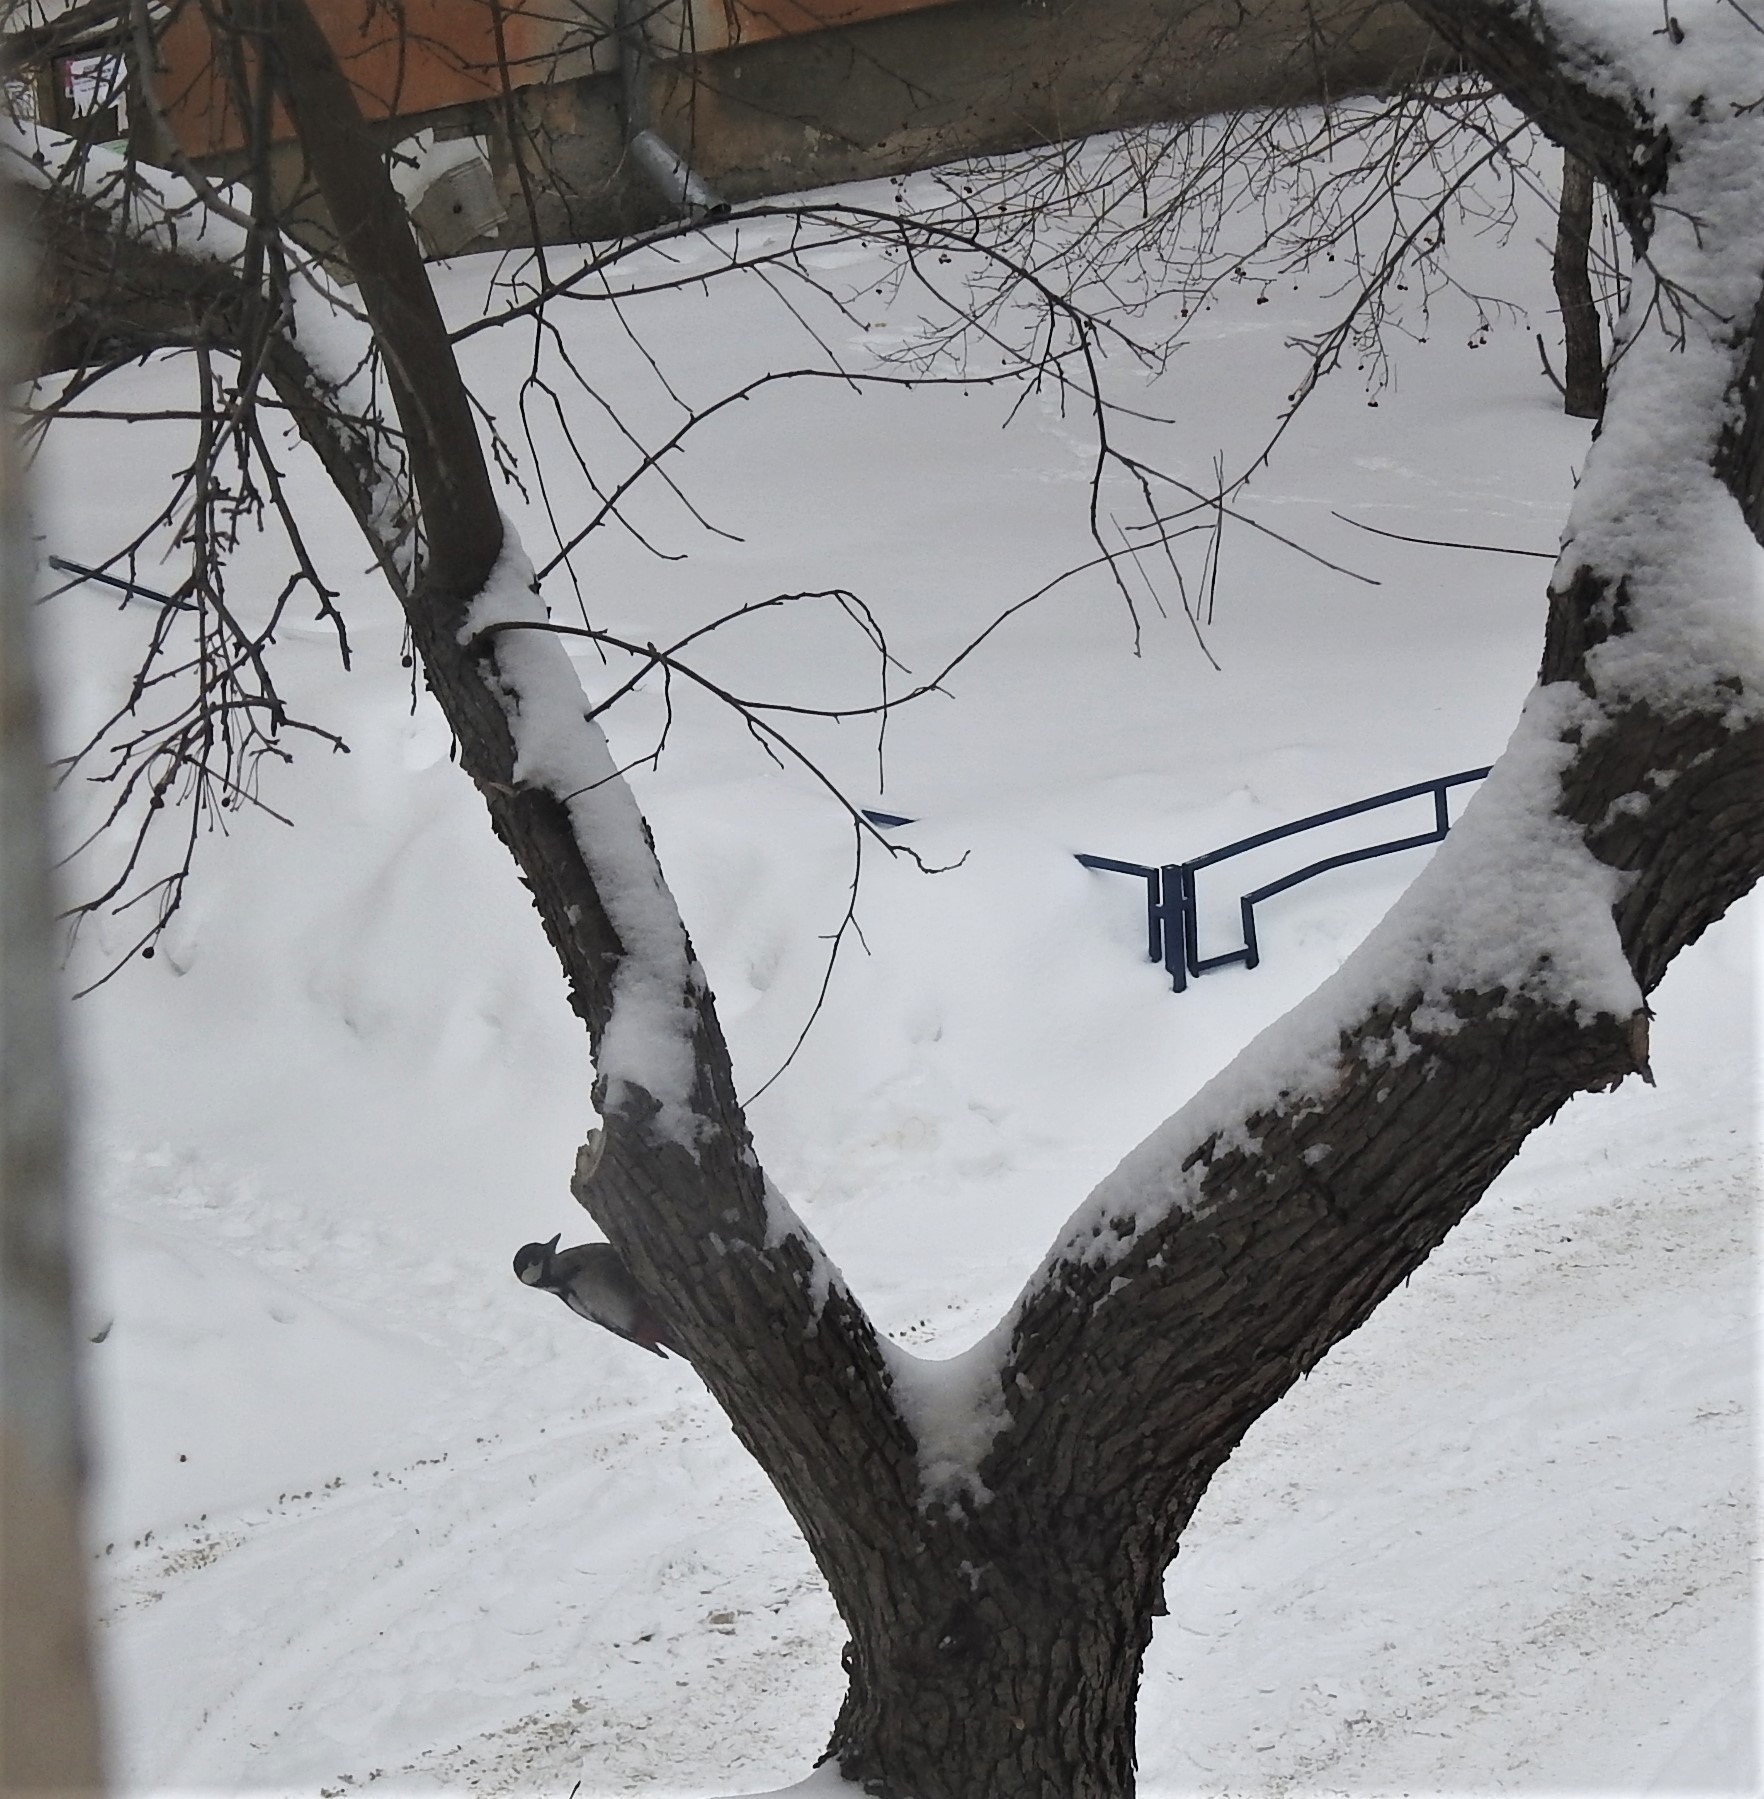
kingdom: Animalia
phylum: Chordata
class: Aves
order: Piciformes
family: Picidae
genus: Dendrocopos
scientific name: Dendrocopos major
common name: Great spotted woodpecker
